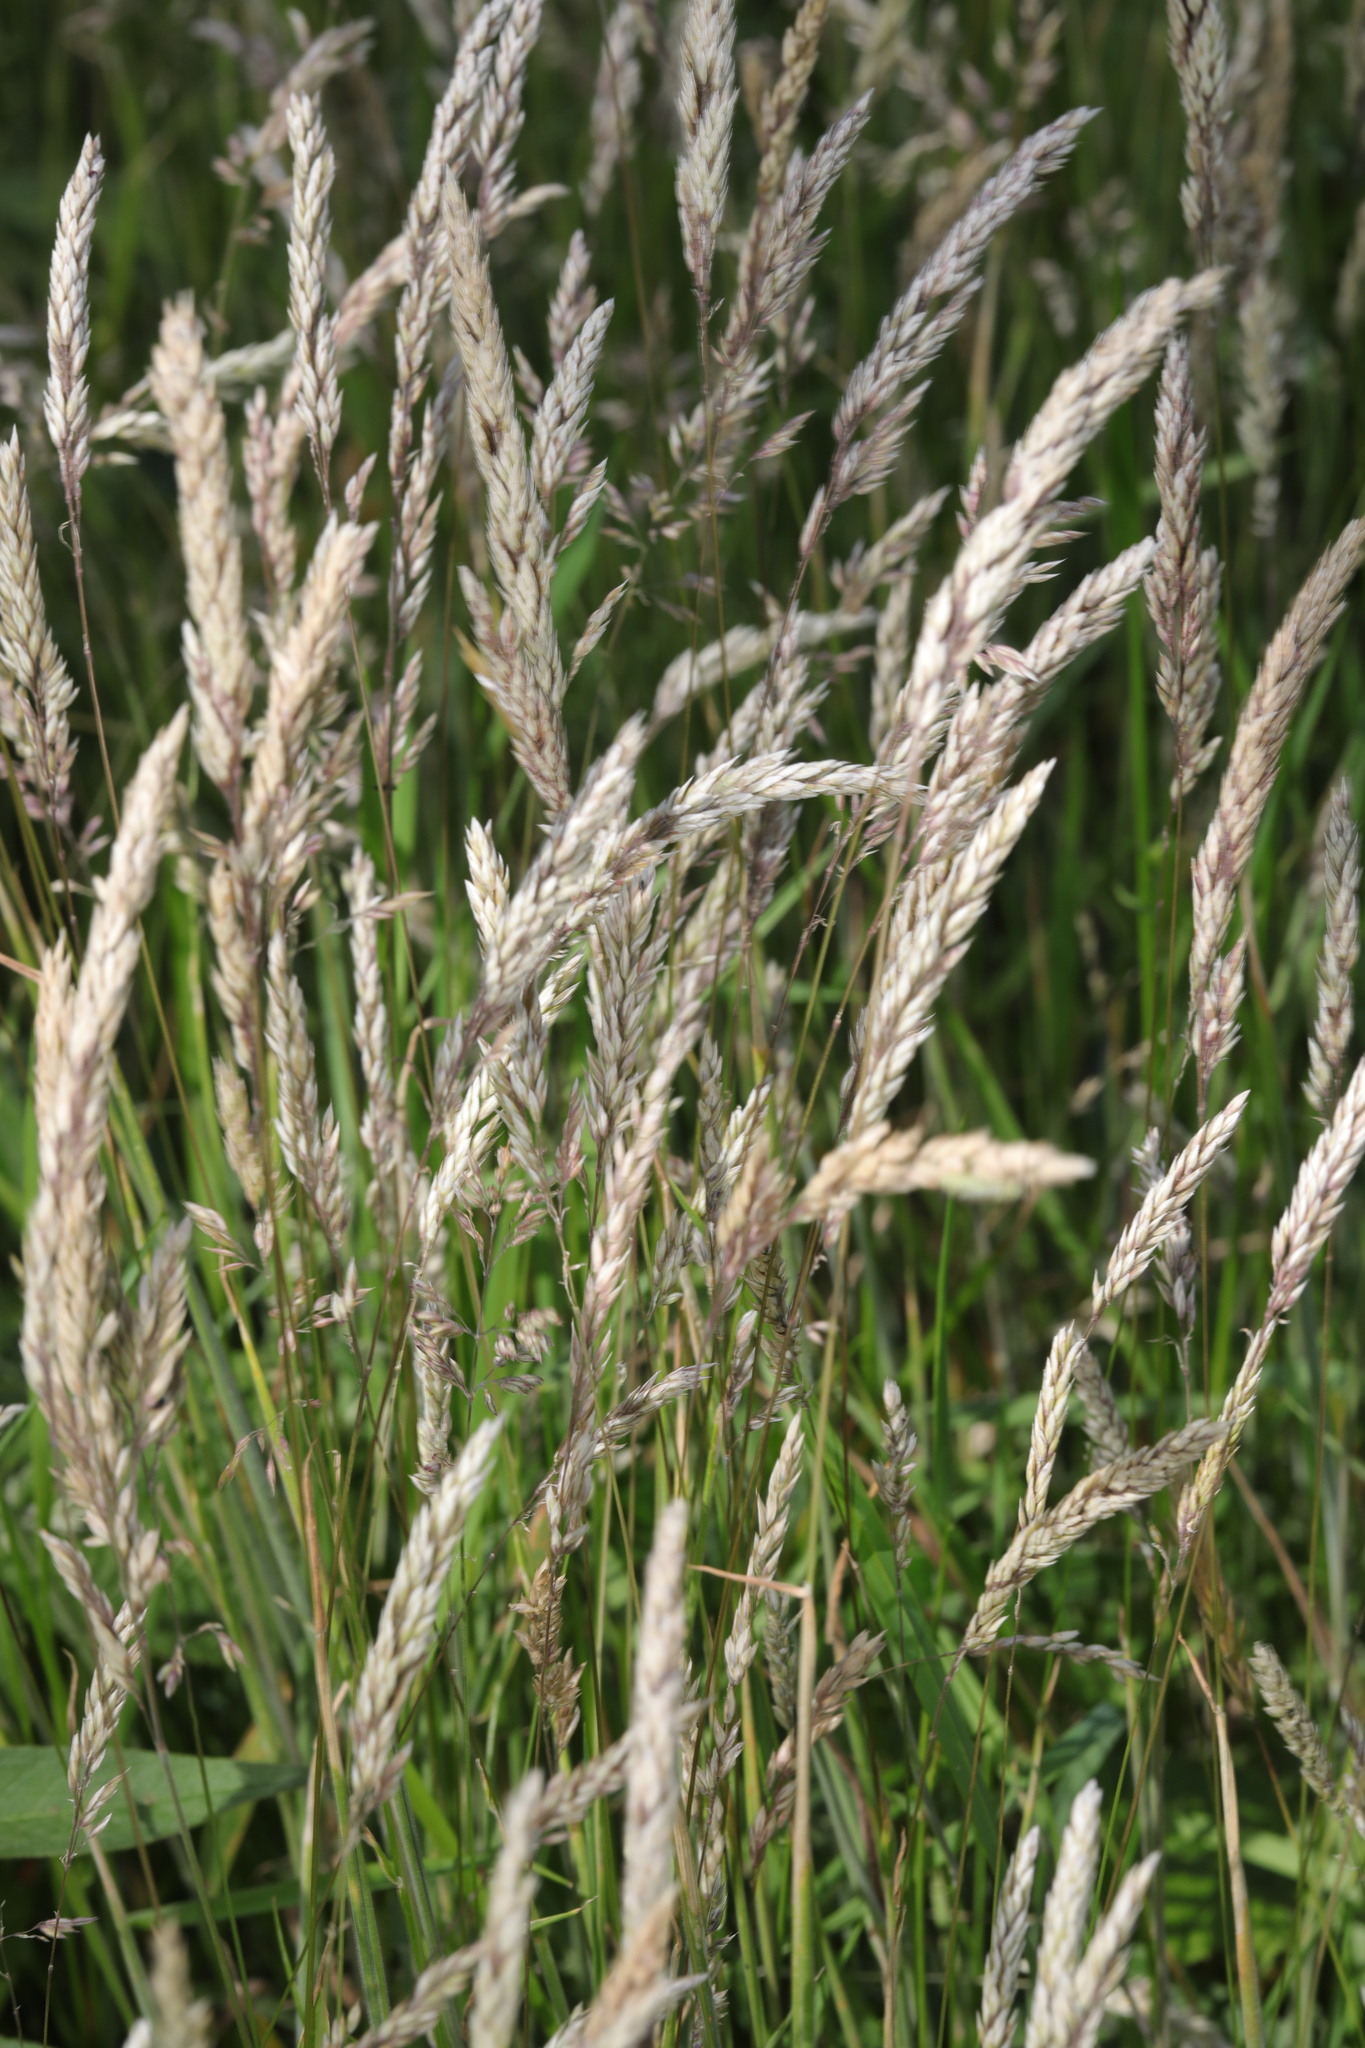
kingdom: Plantae
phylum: Tracheophyta
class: Liliopsida
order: Poales
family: Poaceae
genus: Holcus
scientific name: Holcus lanatus
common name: Yorkshire-fog
